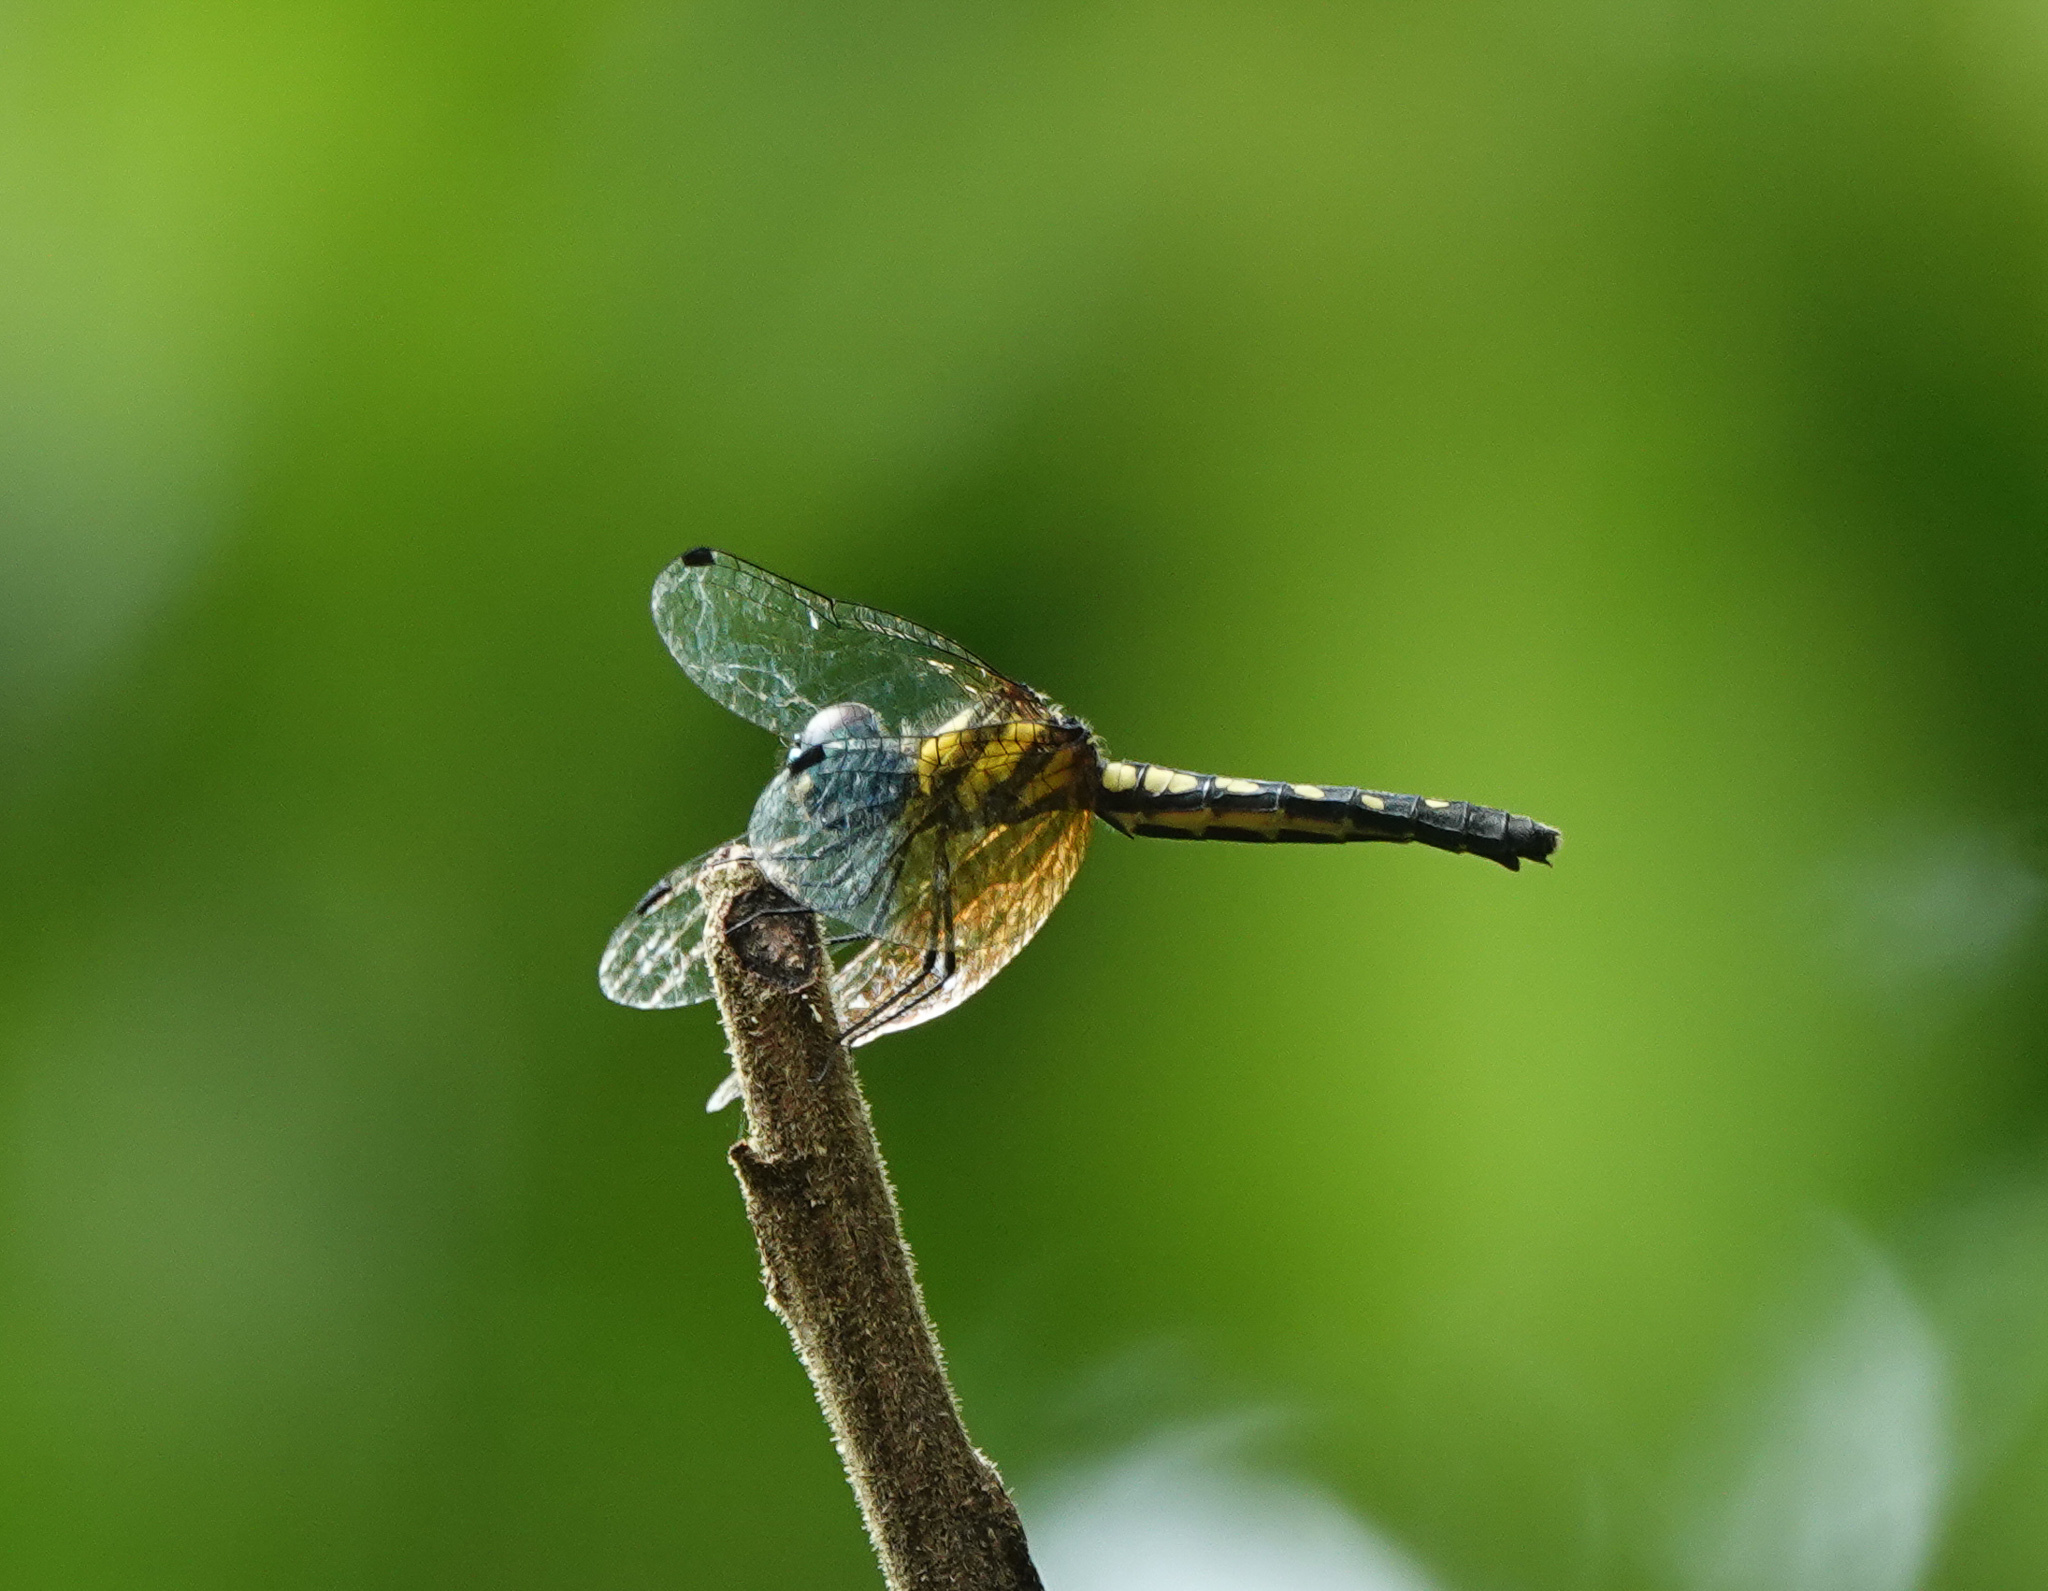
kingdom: Animalia
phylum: Arthropoda
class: Insecta
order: Odonata
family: Libellulidae
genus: Tetrathemis
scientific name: Tetrathemis platyptera
